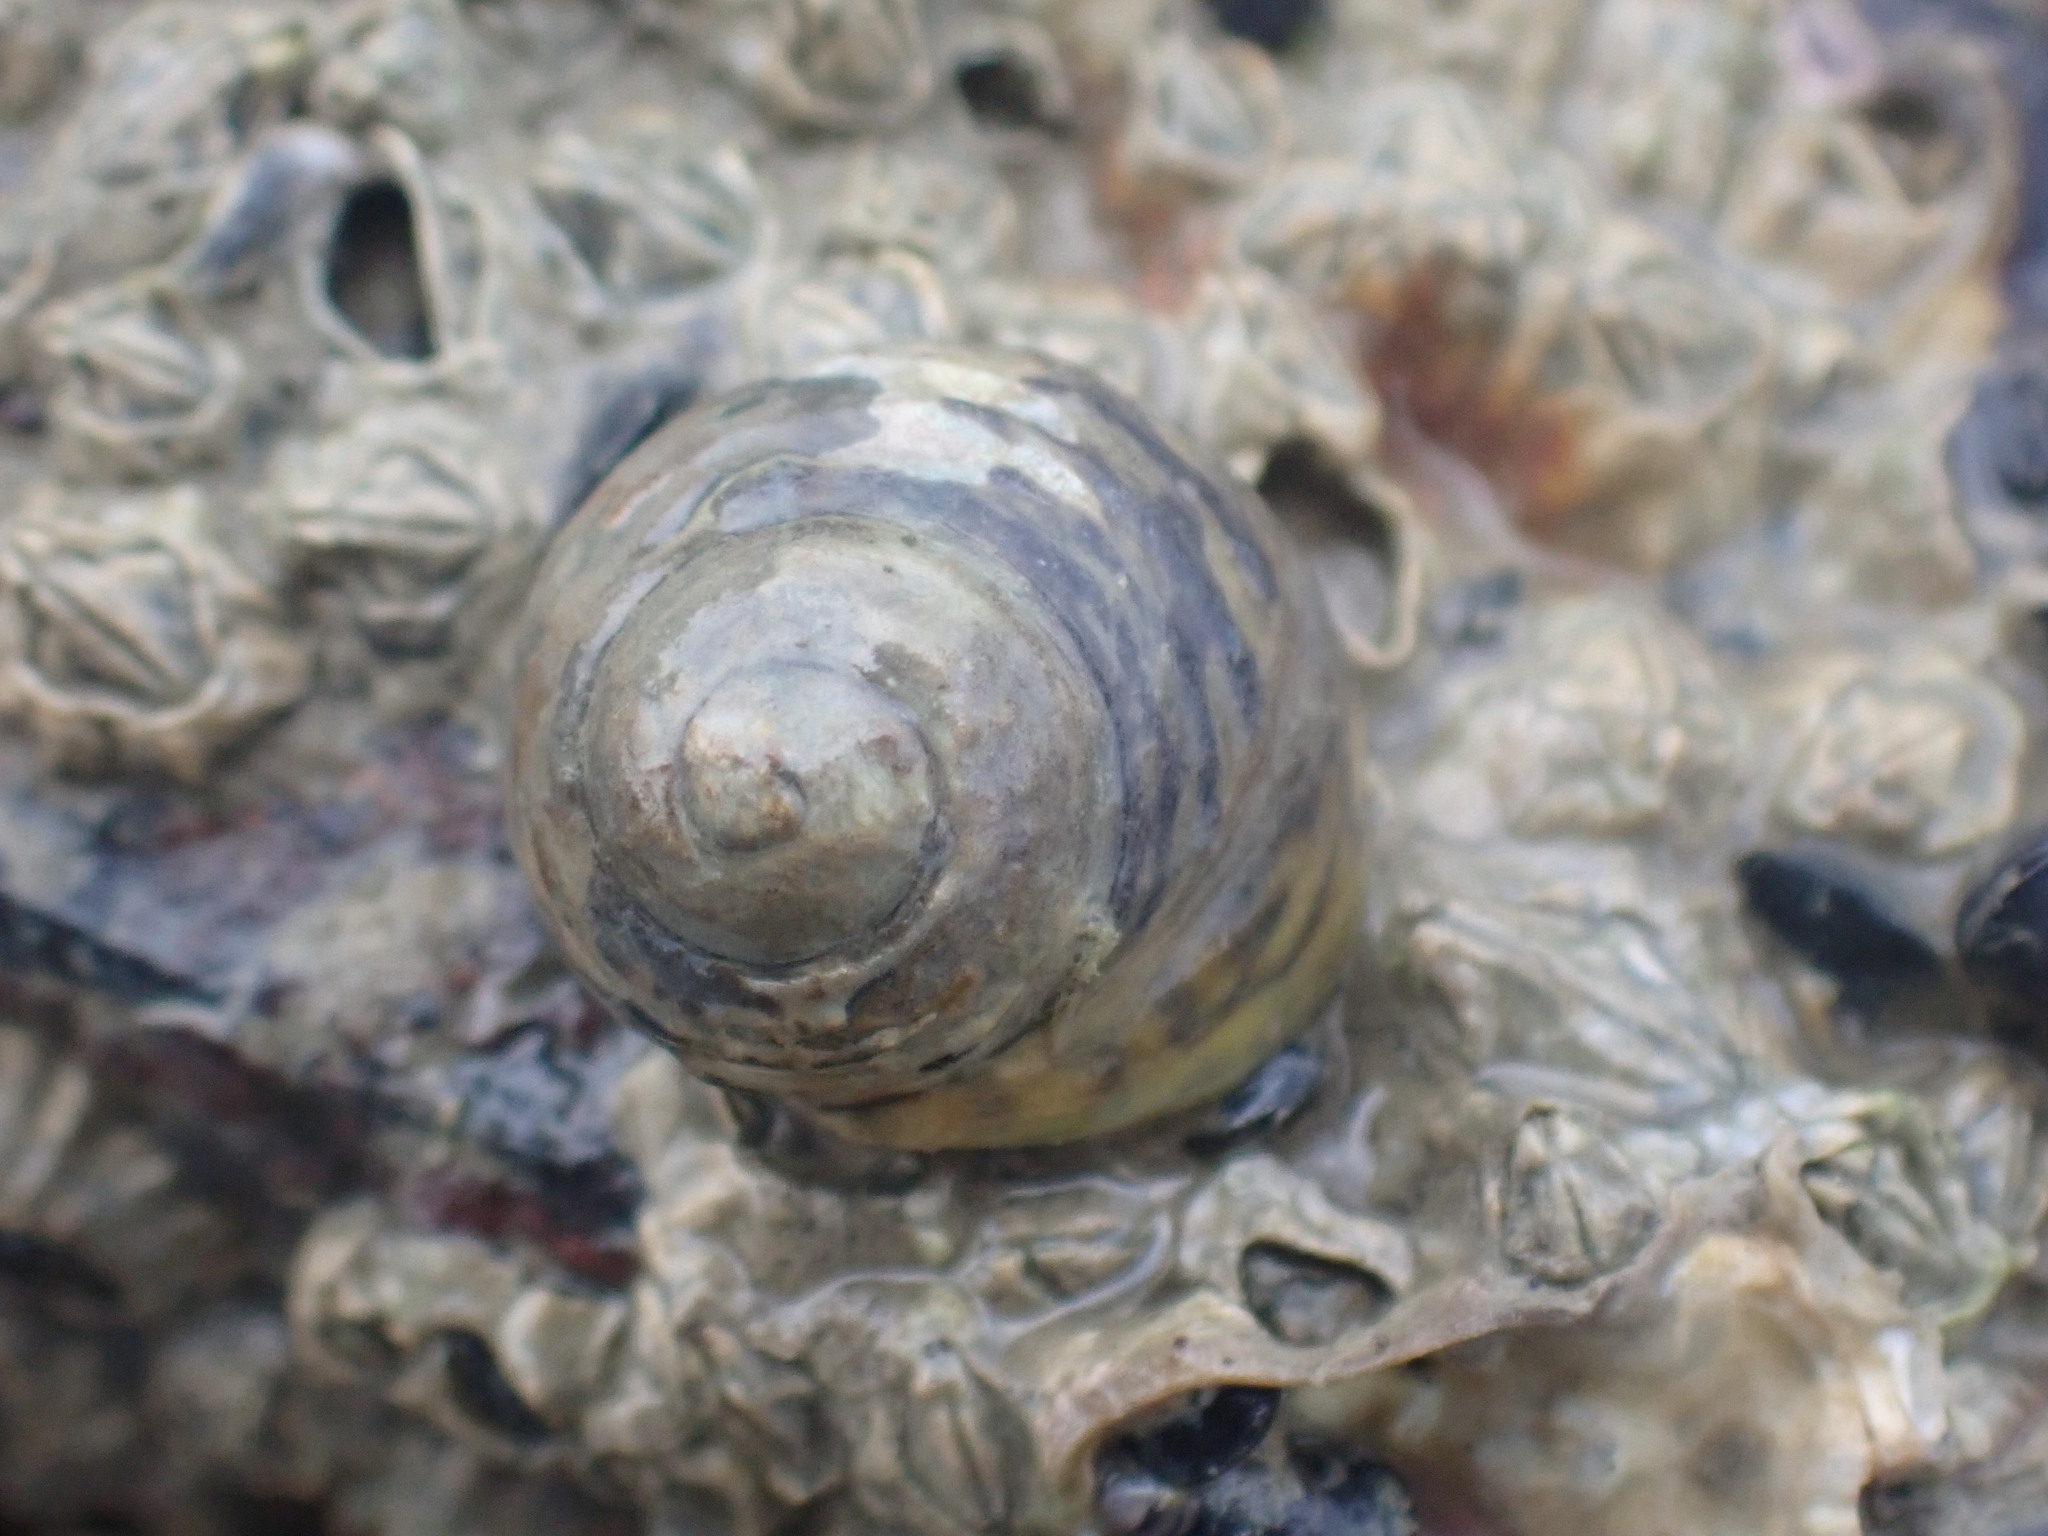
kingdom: Animalia
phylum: Mollusca
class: Gastropoda
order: Trochida
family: Trochidae
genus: Diloma
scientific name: Diloma subrostratum
